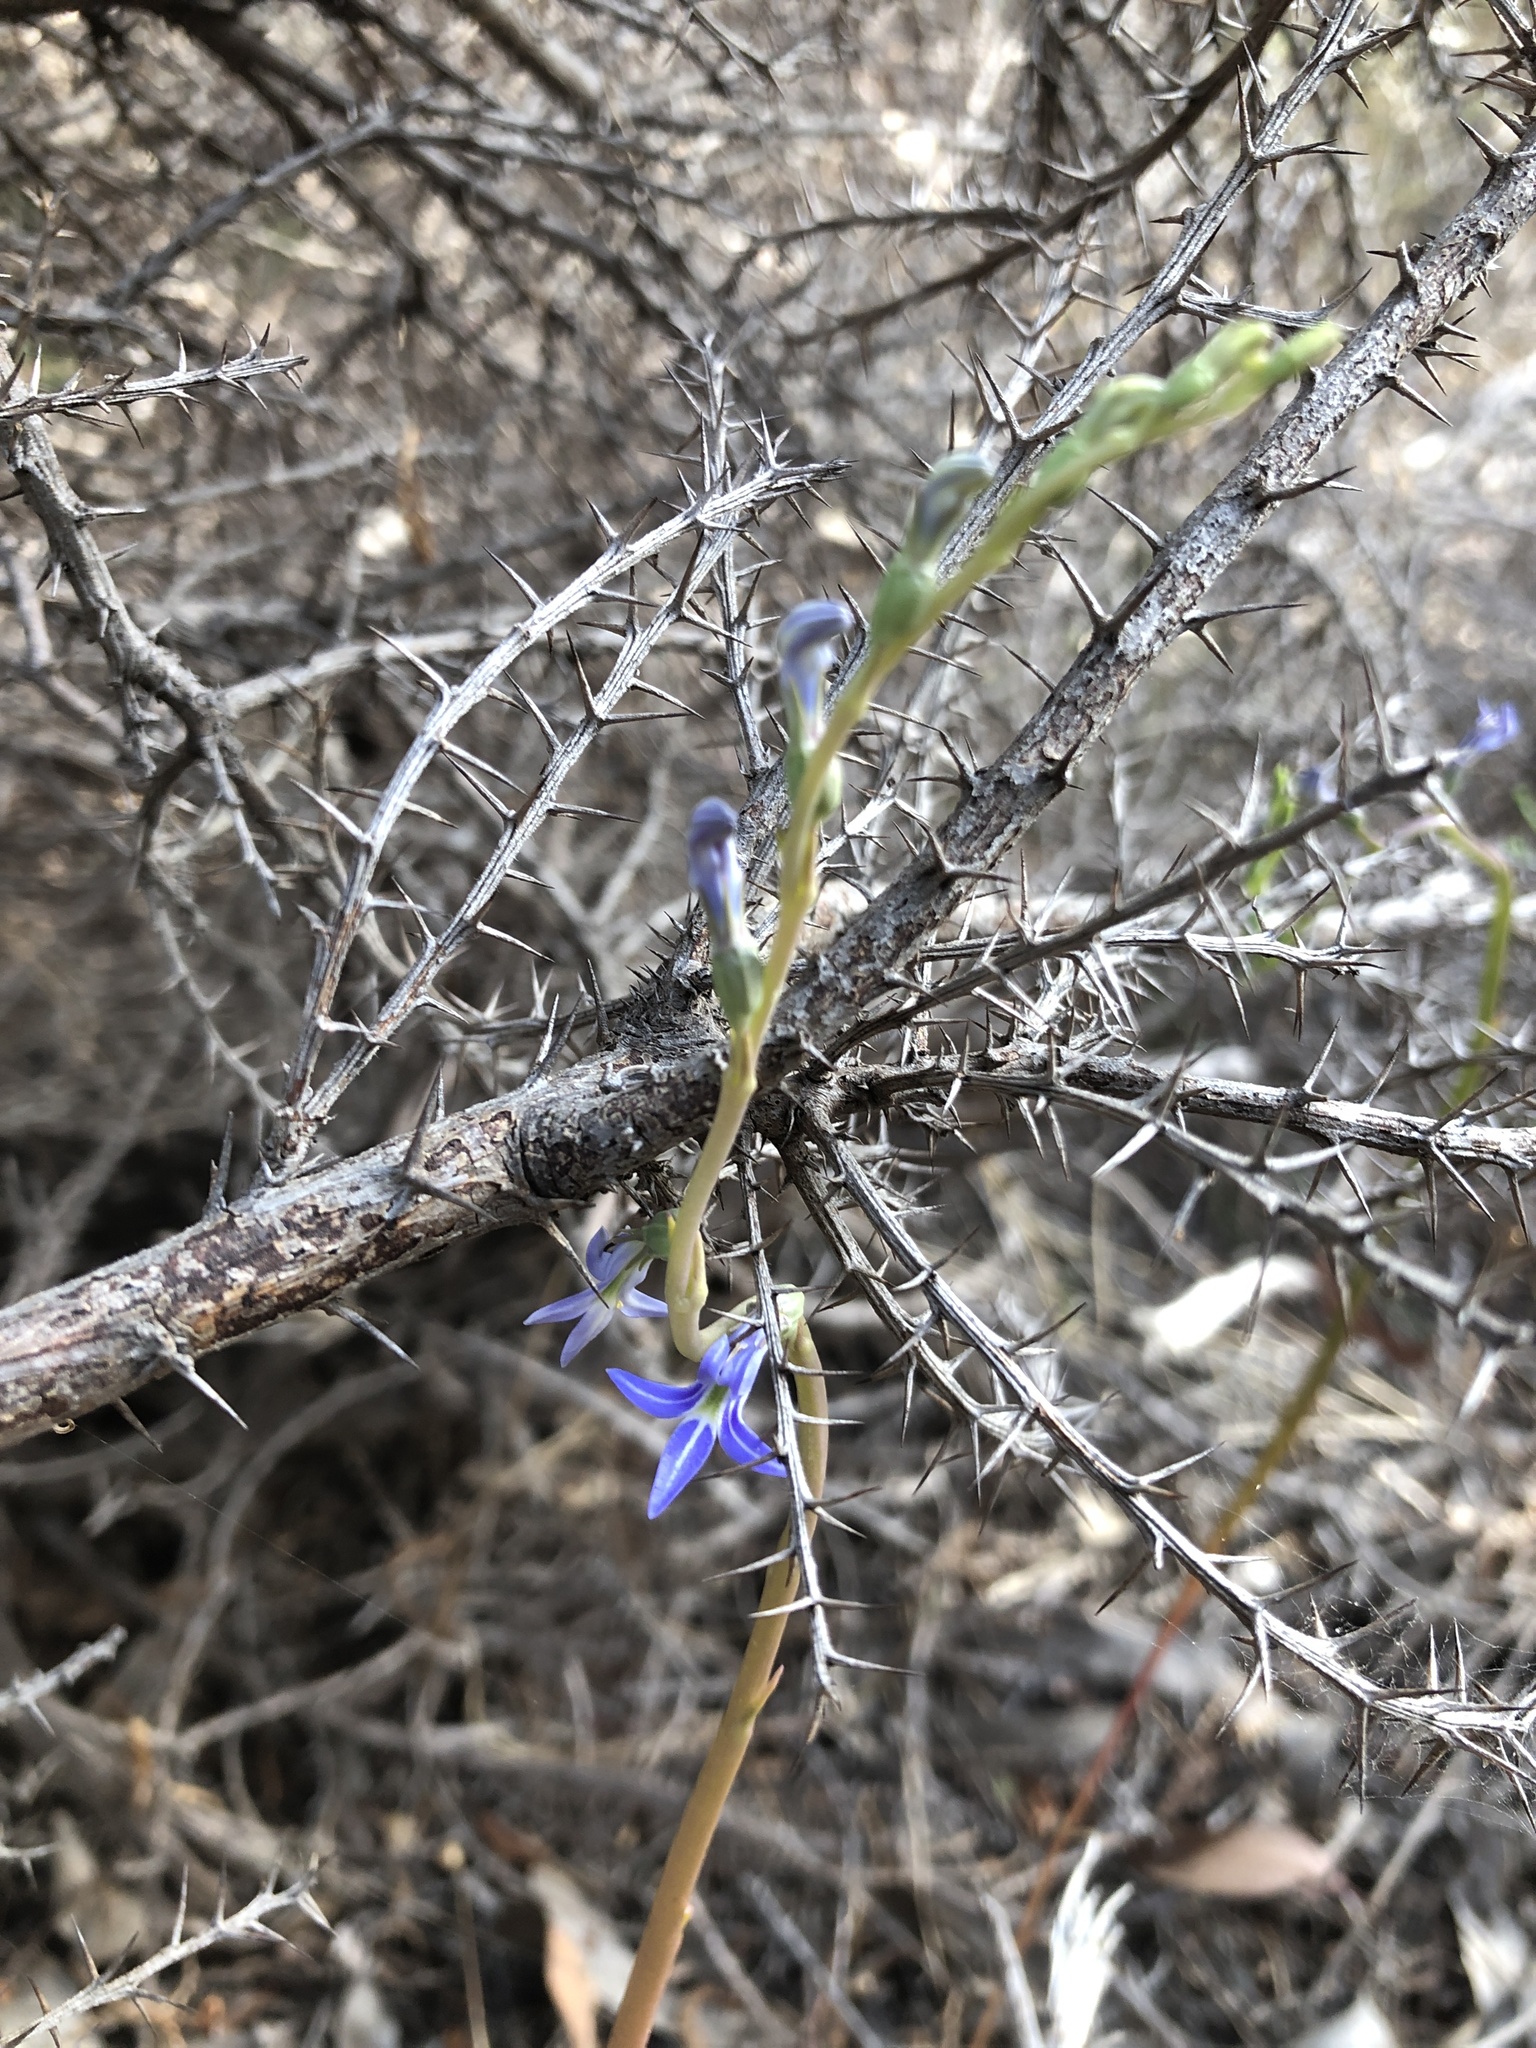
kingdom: Plantae
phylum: Tracheophyta
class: Magnoliopsida
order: Asterales
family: Campanulaceae
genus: Lobelia
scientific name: Lobelia gibbosa
